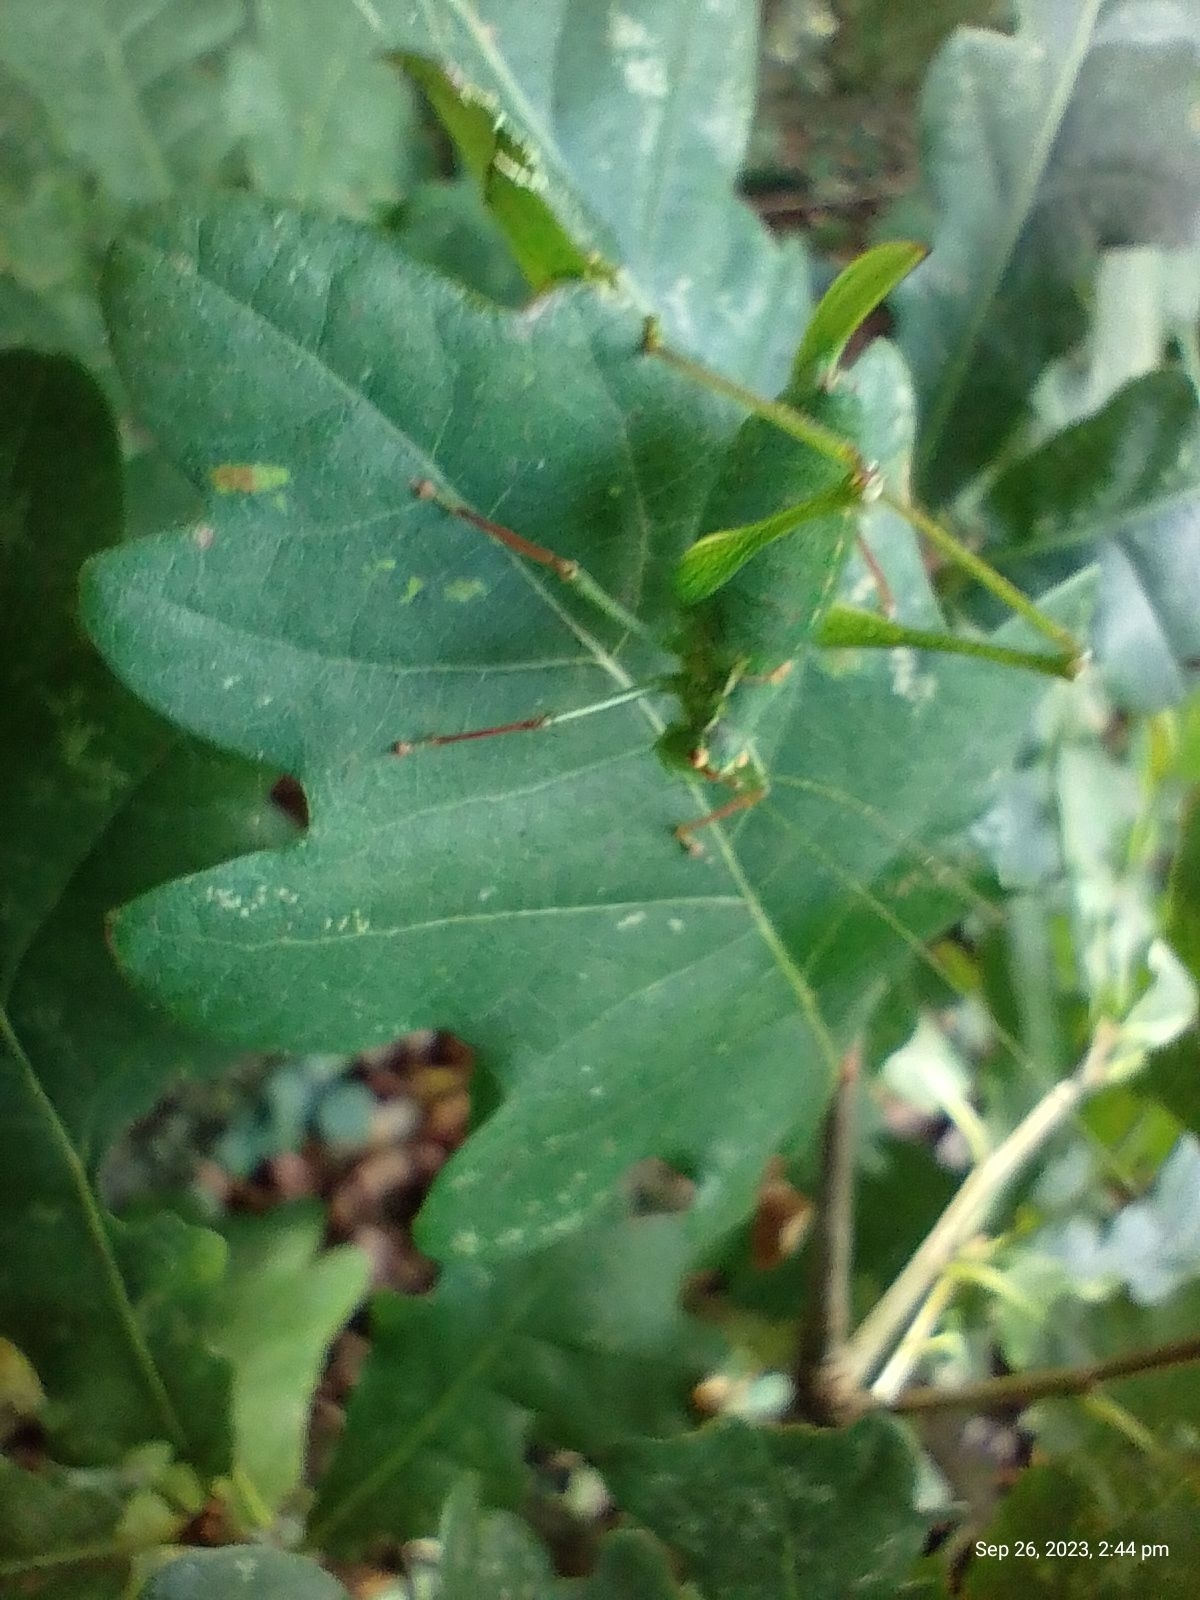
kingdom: Animalia
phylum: Arthropoda
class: Insecta
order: Orthoptera
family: Tettigoniidae
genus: Leptophyes
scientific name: Leptophyes punctatissima
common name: Speckled bush-cricket
